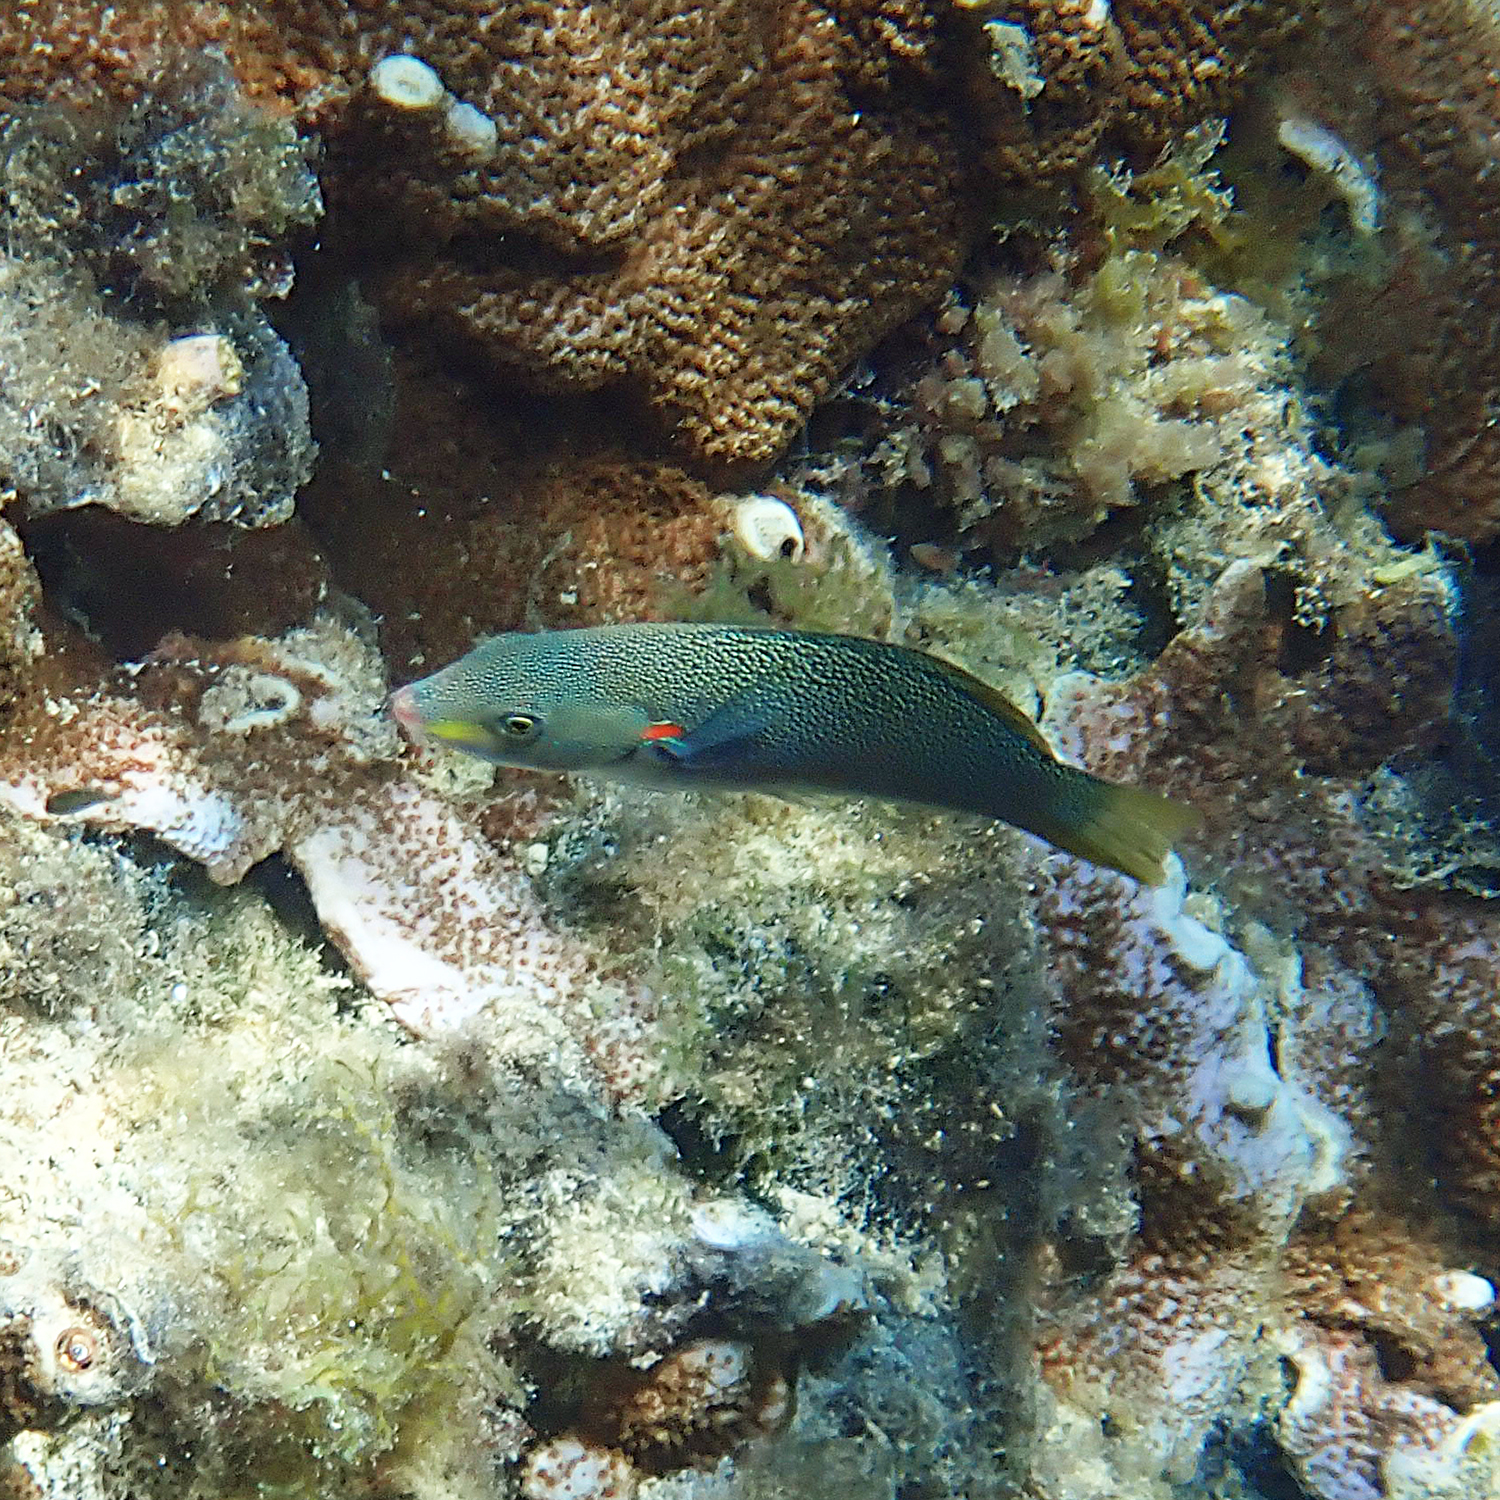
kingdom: Animalia
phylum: Chordata
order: Perciformes
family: Labridae
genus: Stethojulis
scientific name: Stethojulis bandanensis
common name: Red shoulder wrasse
